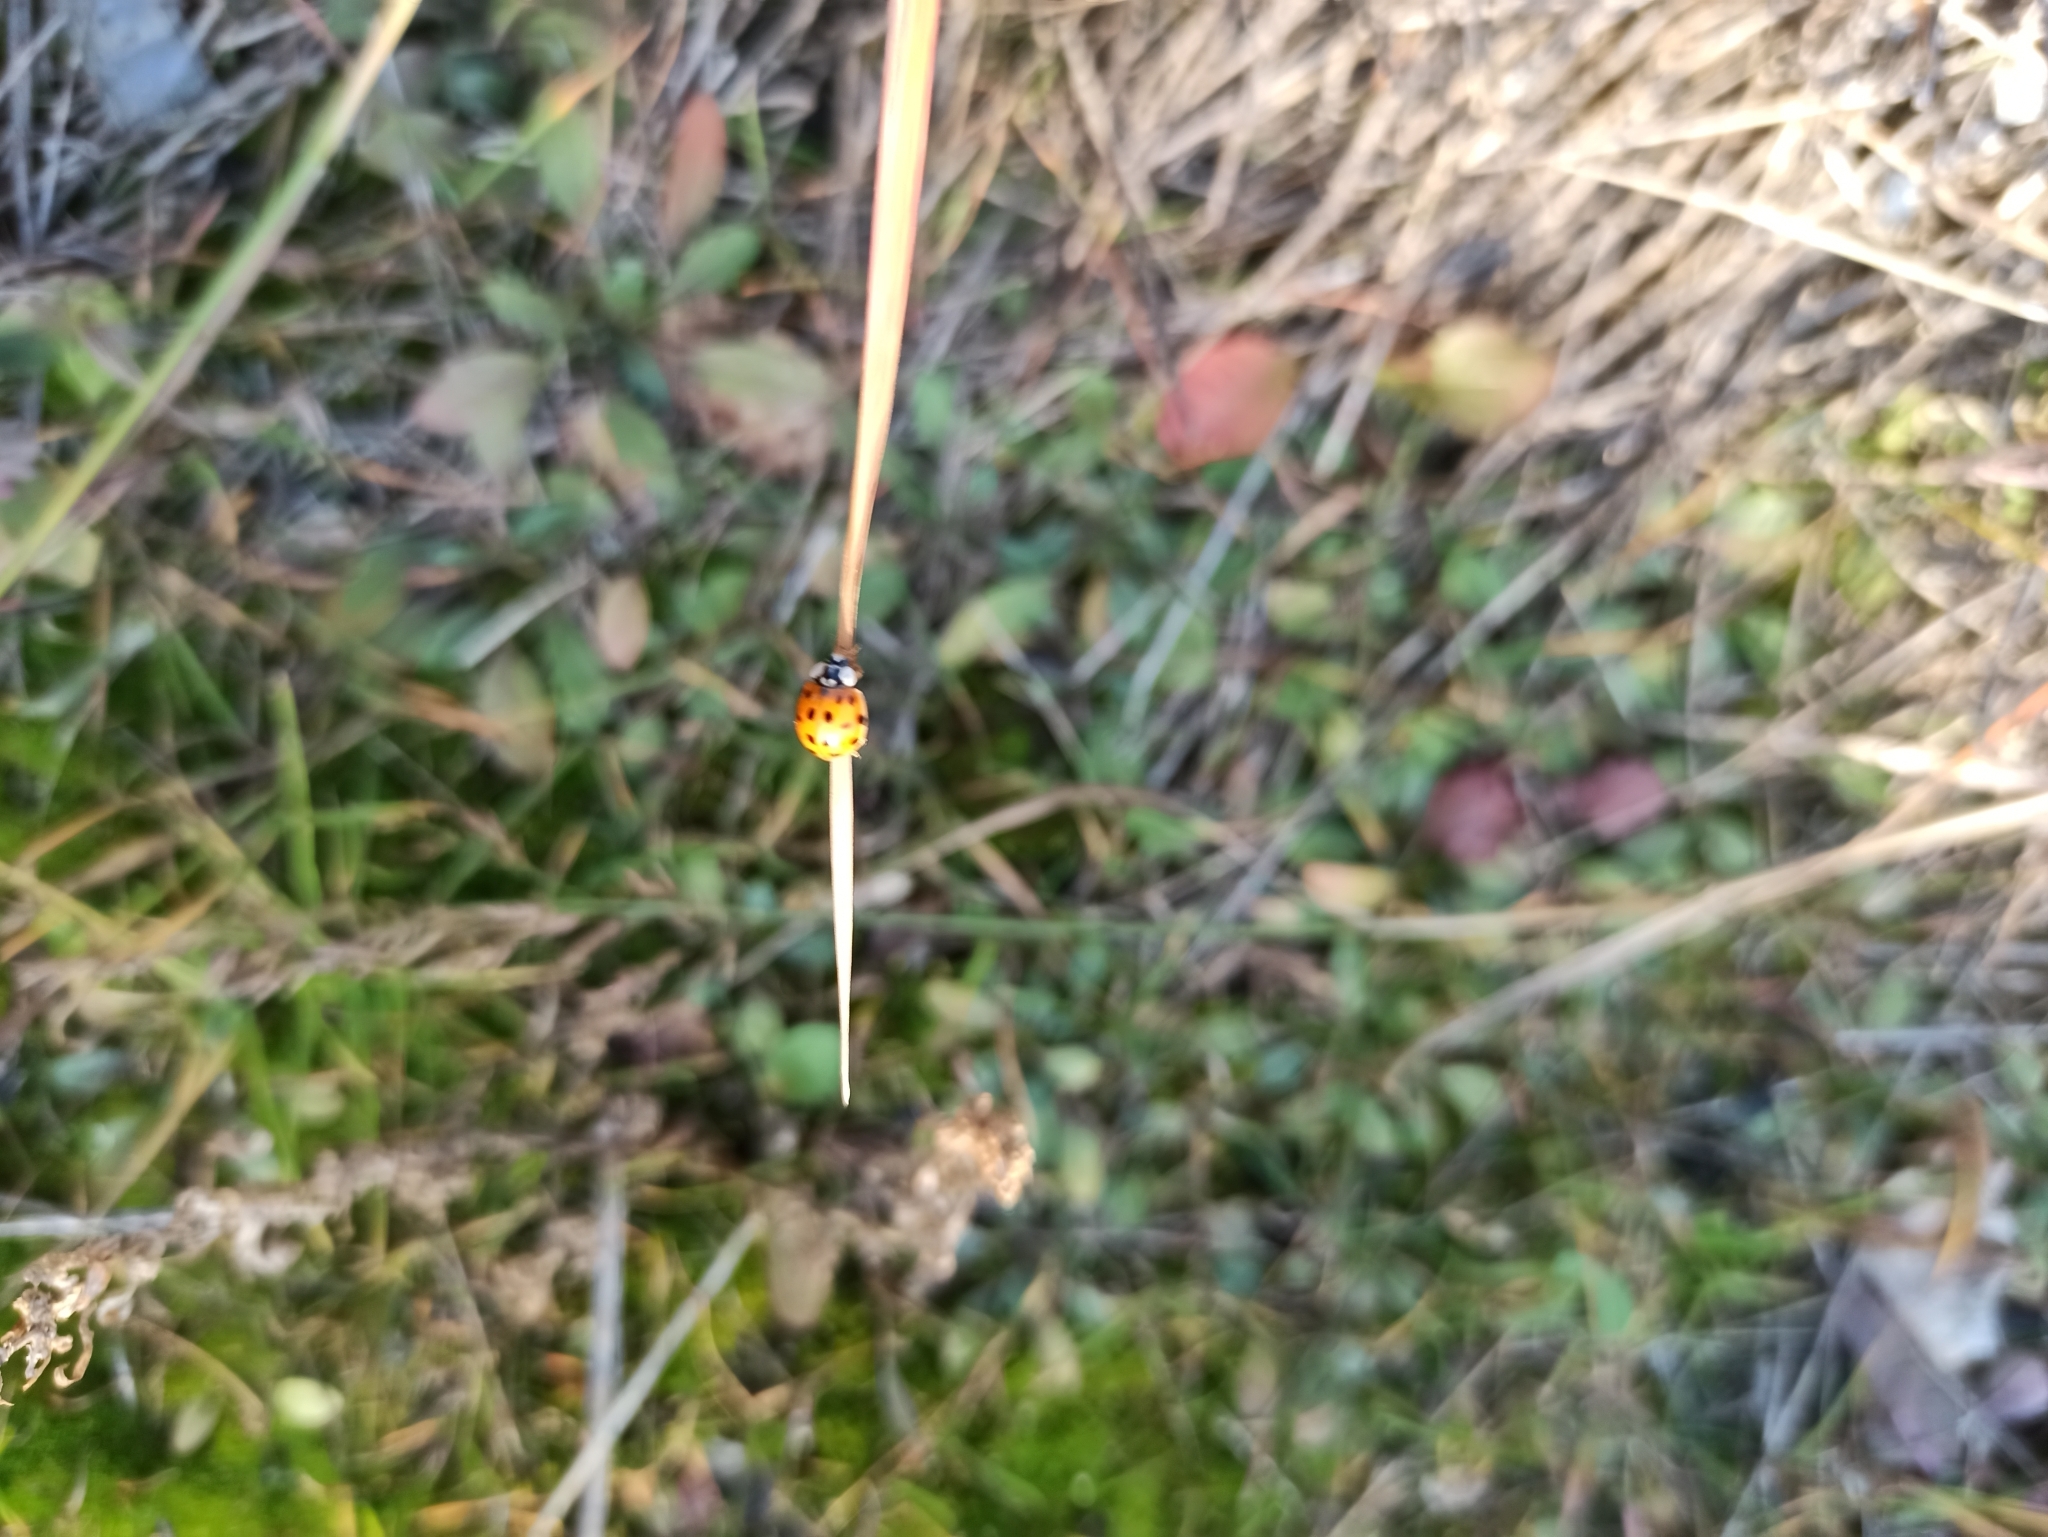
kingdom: Animalia
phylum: Arthropoda
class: Insecta
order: Coleoptera
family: Coccinellidae
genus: Harmonia
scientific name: Harmonia axyridis
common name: Harlequin ladybird
